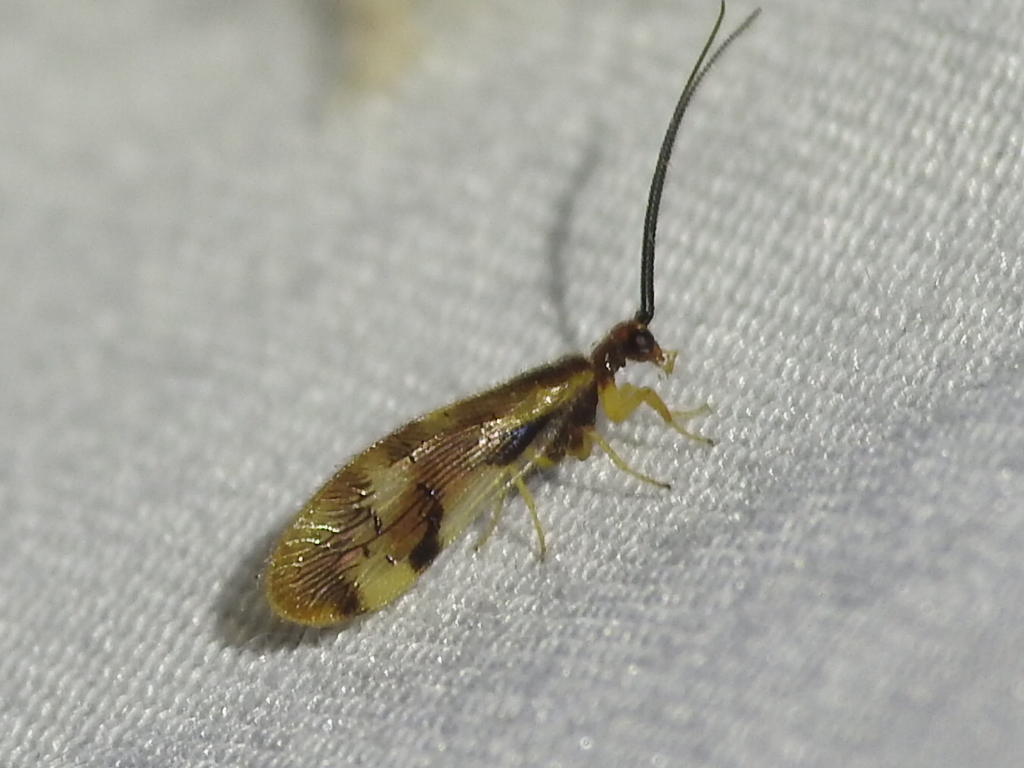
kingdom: Animalia
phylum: Arthropoda
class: Insecta
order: Neuroptera
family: Sisyridae
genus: Climacia
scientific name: Climacia areolaris
